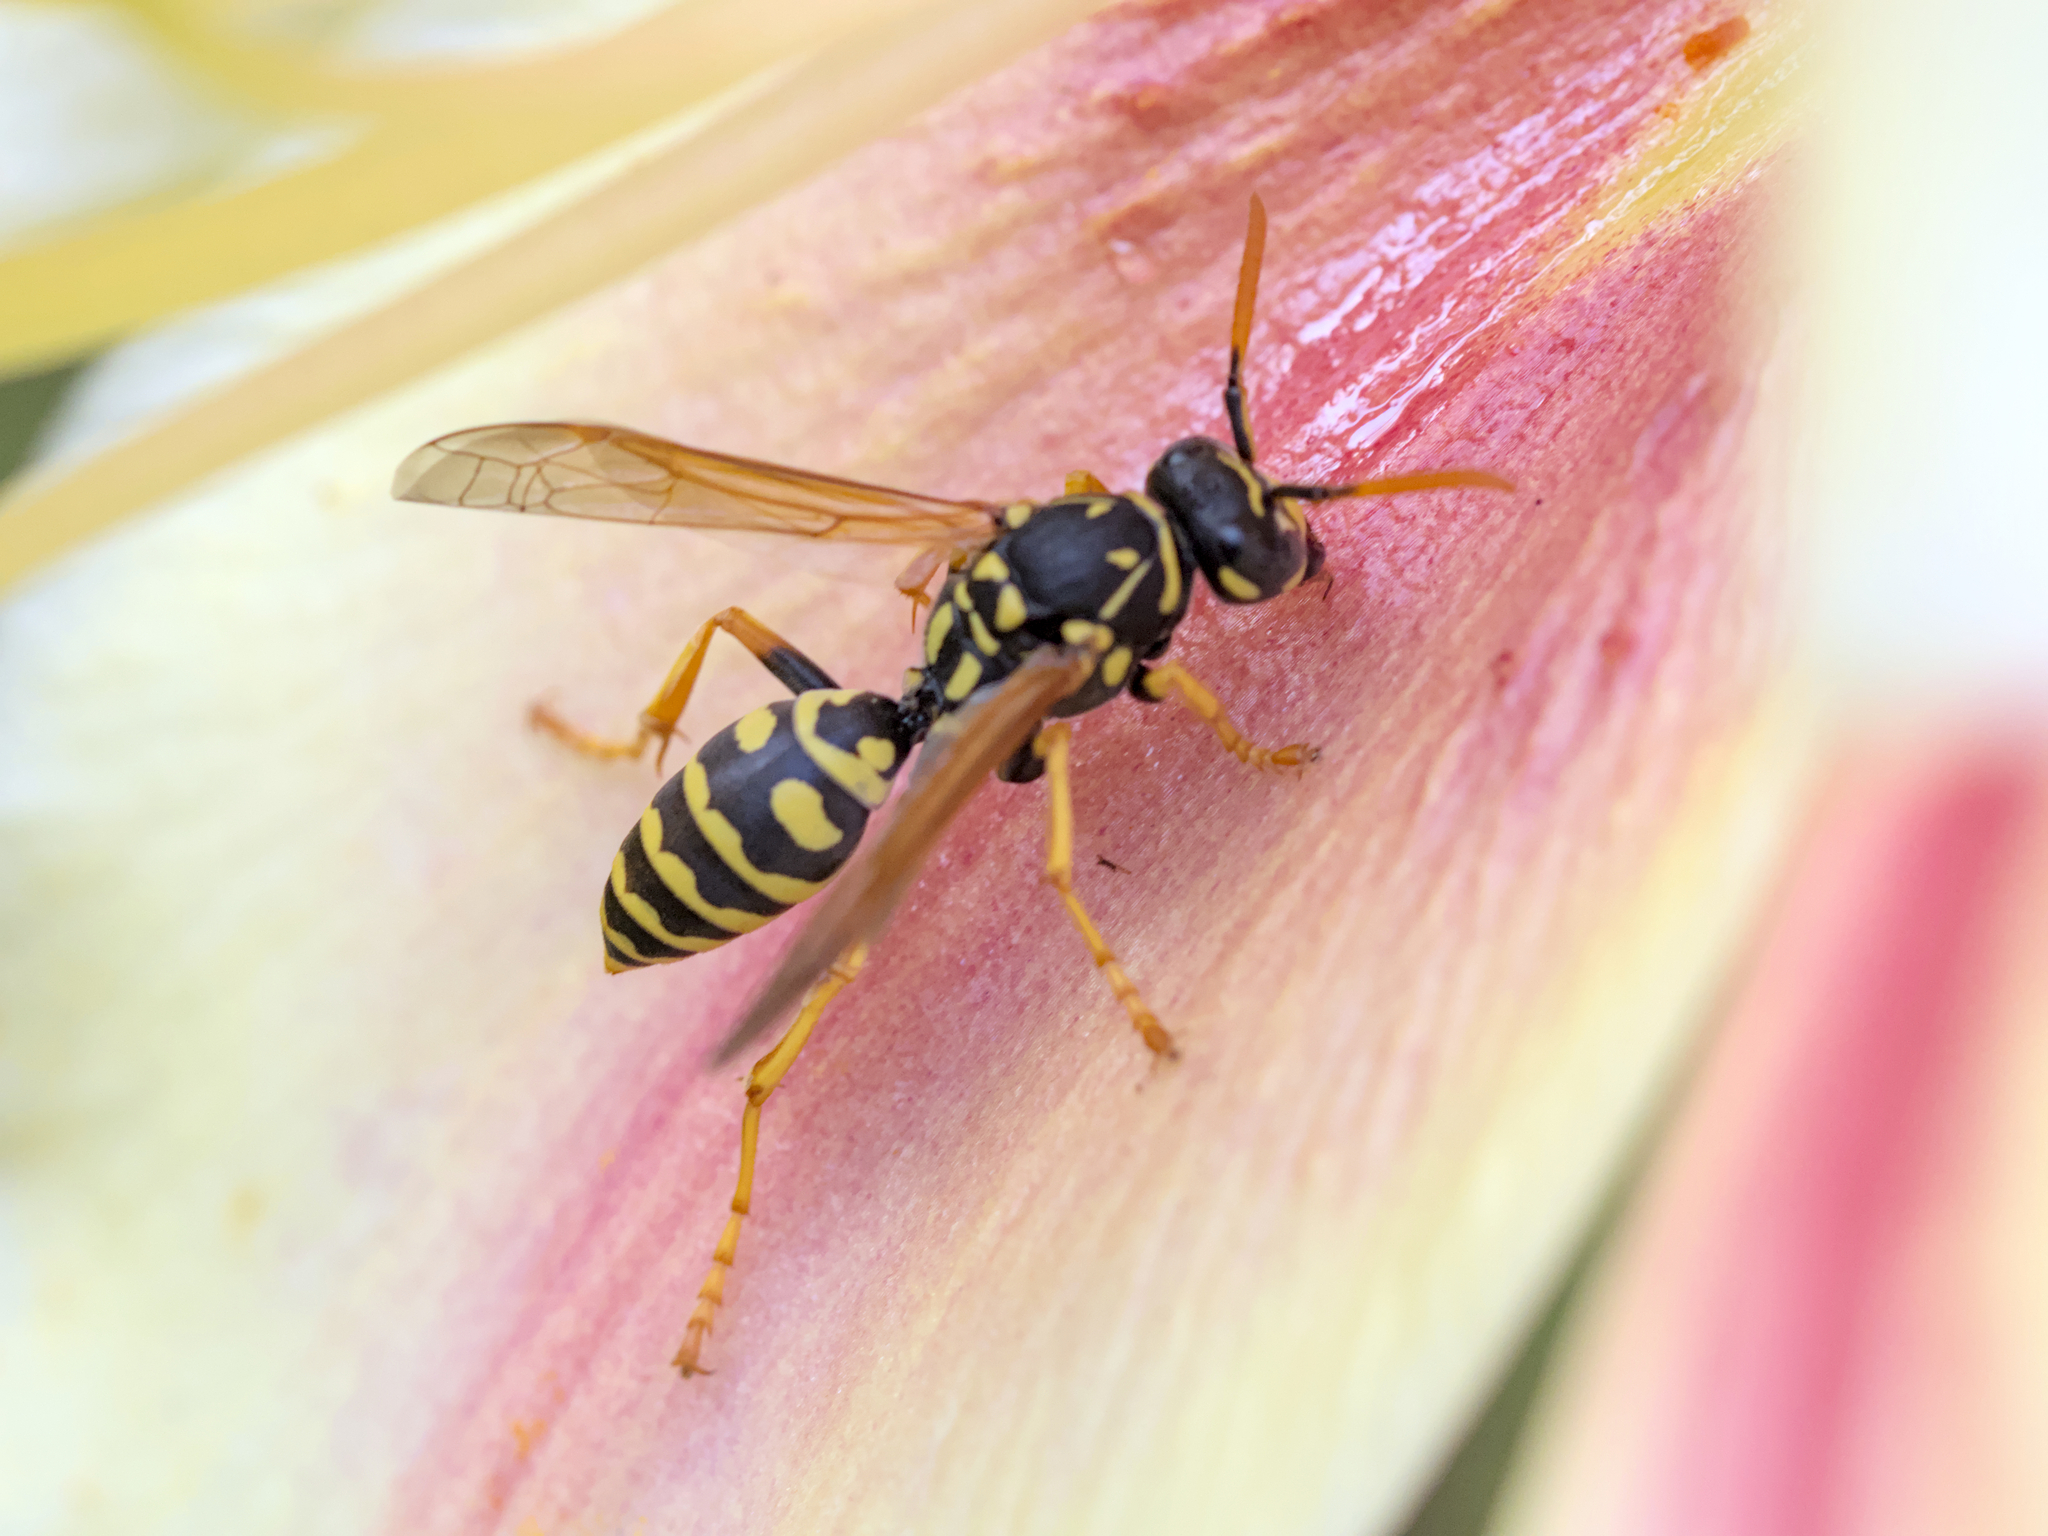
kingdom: Animalia
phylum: Arthropoda
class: Insecta
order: Hymenoptera
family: Eumenidae
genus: Polistes
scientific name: Polistes dominula
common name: Paper wasp
